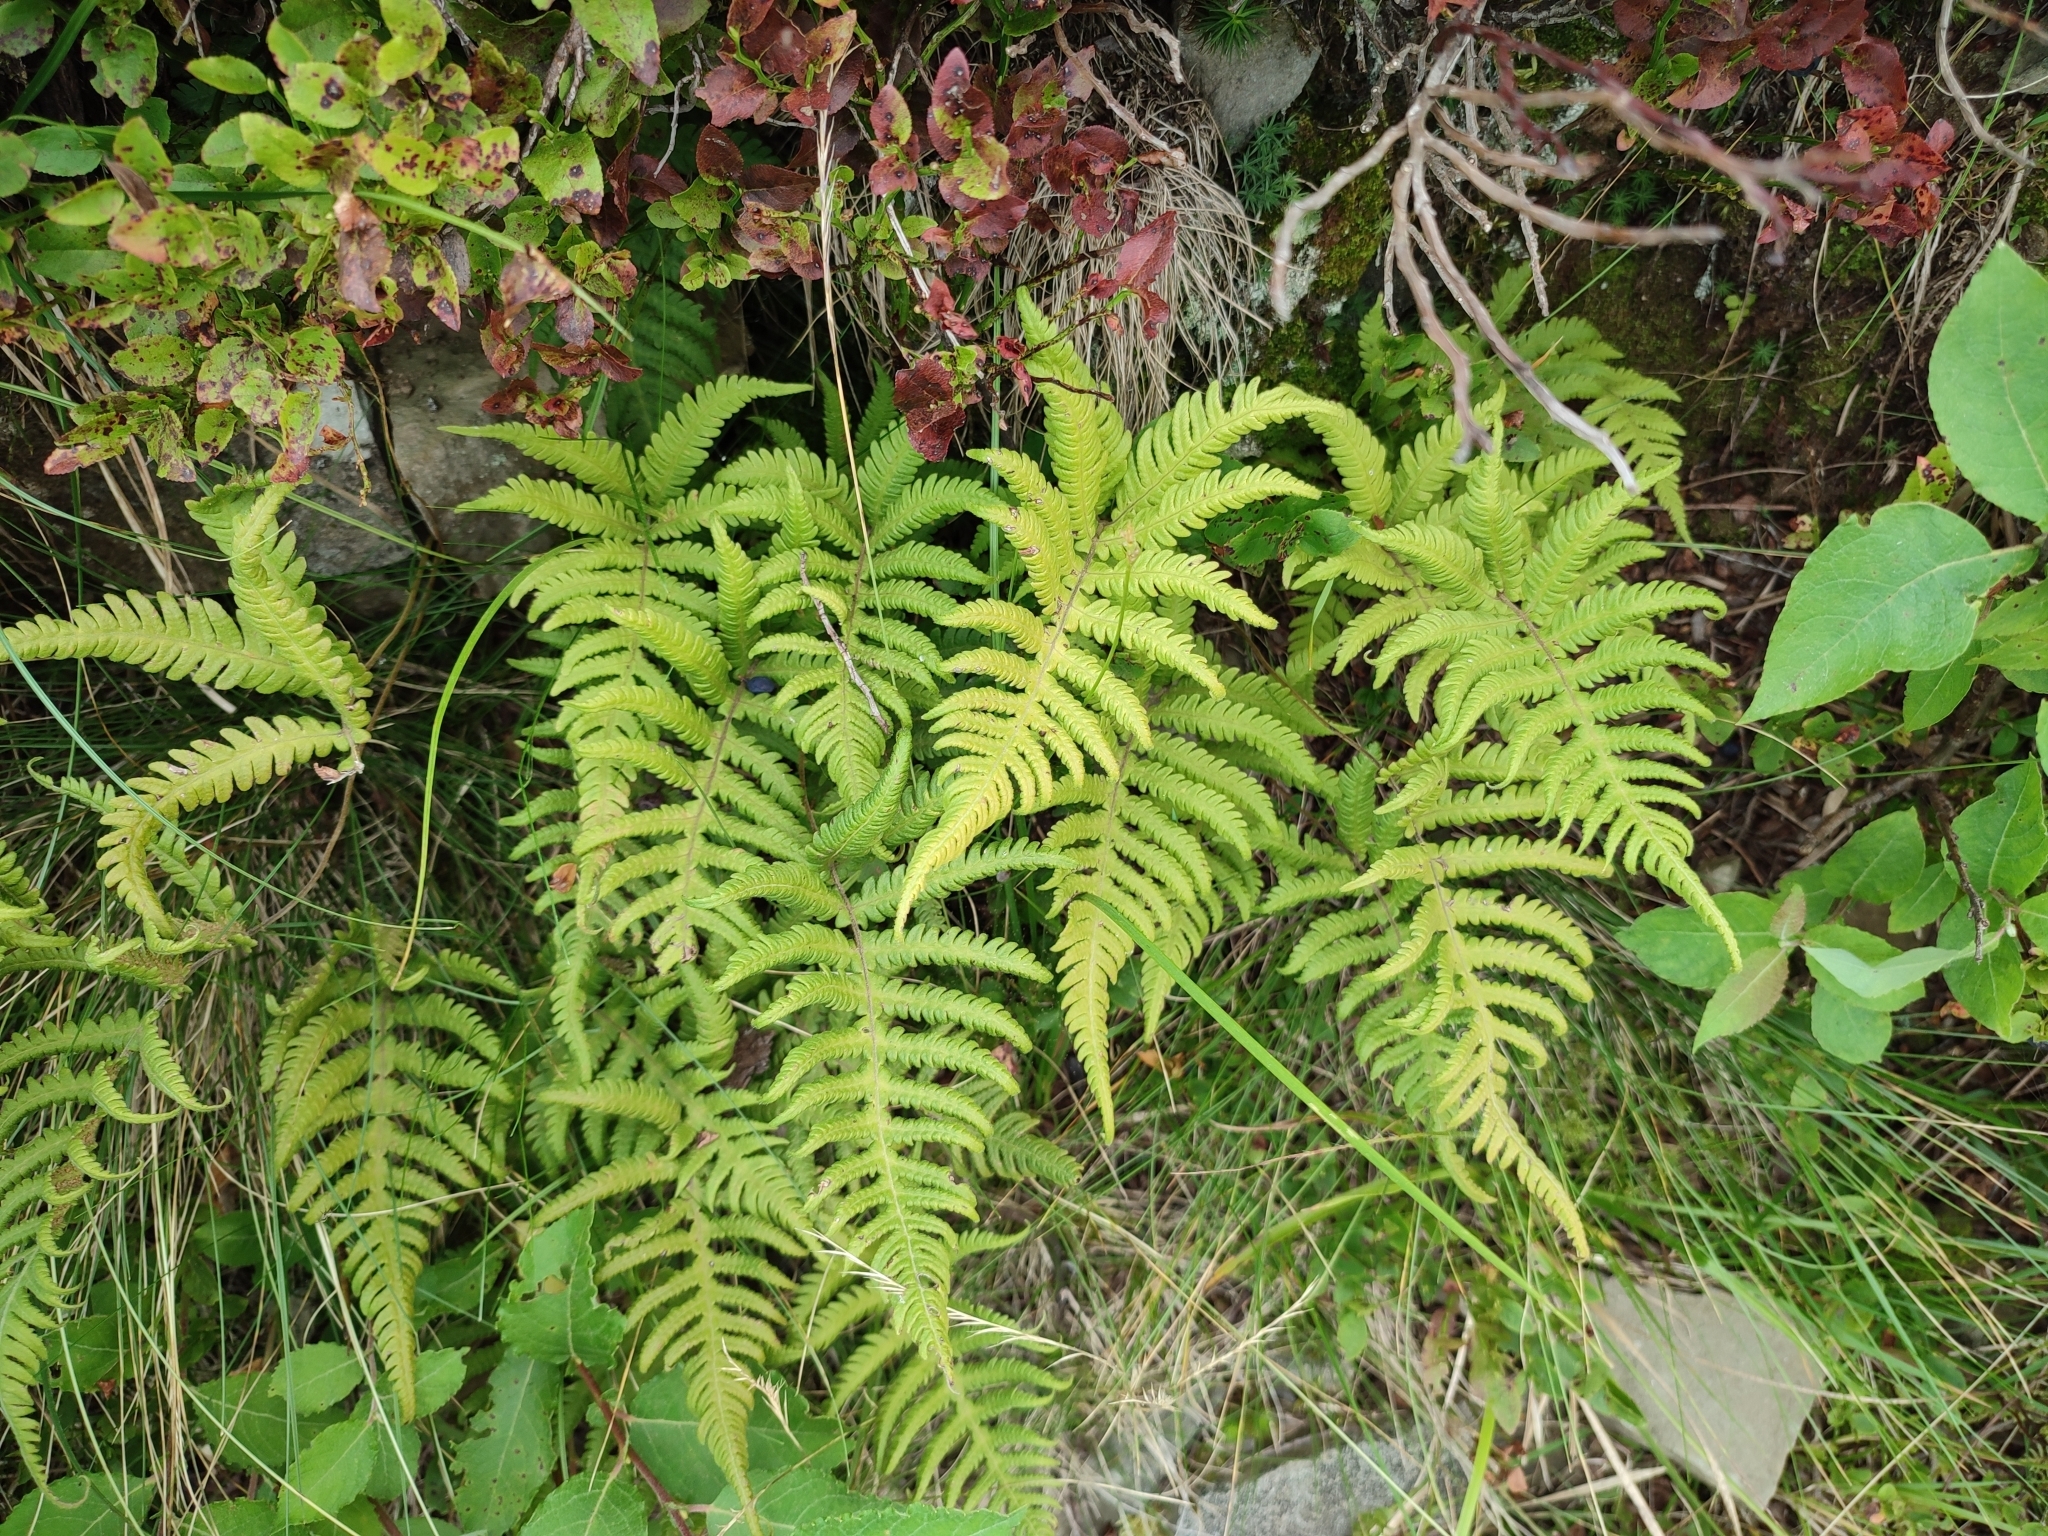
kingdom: Plantae
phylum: Tracheophyta
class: Polypodiopsida
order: Polypodiales
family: Thelypteridaceae
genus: Phegopteris
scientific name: Phegopteris connectilis
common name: Beech fern
